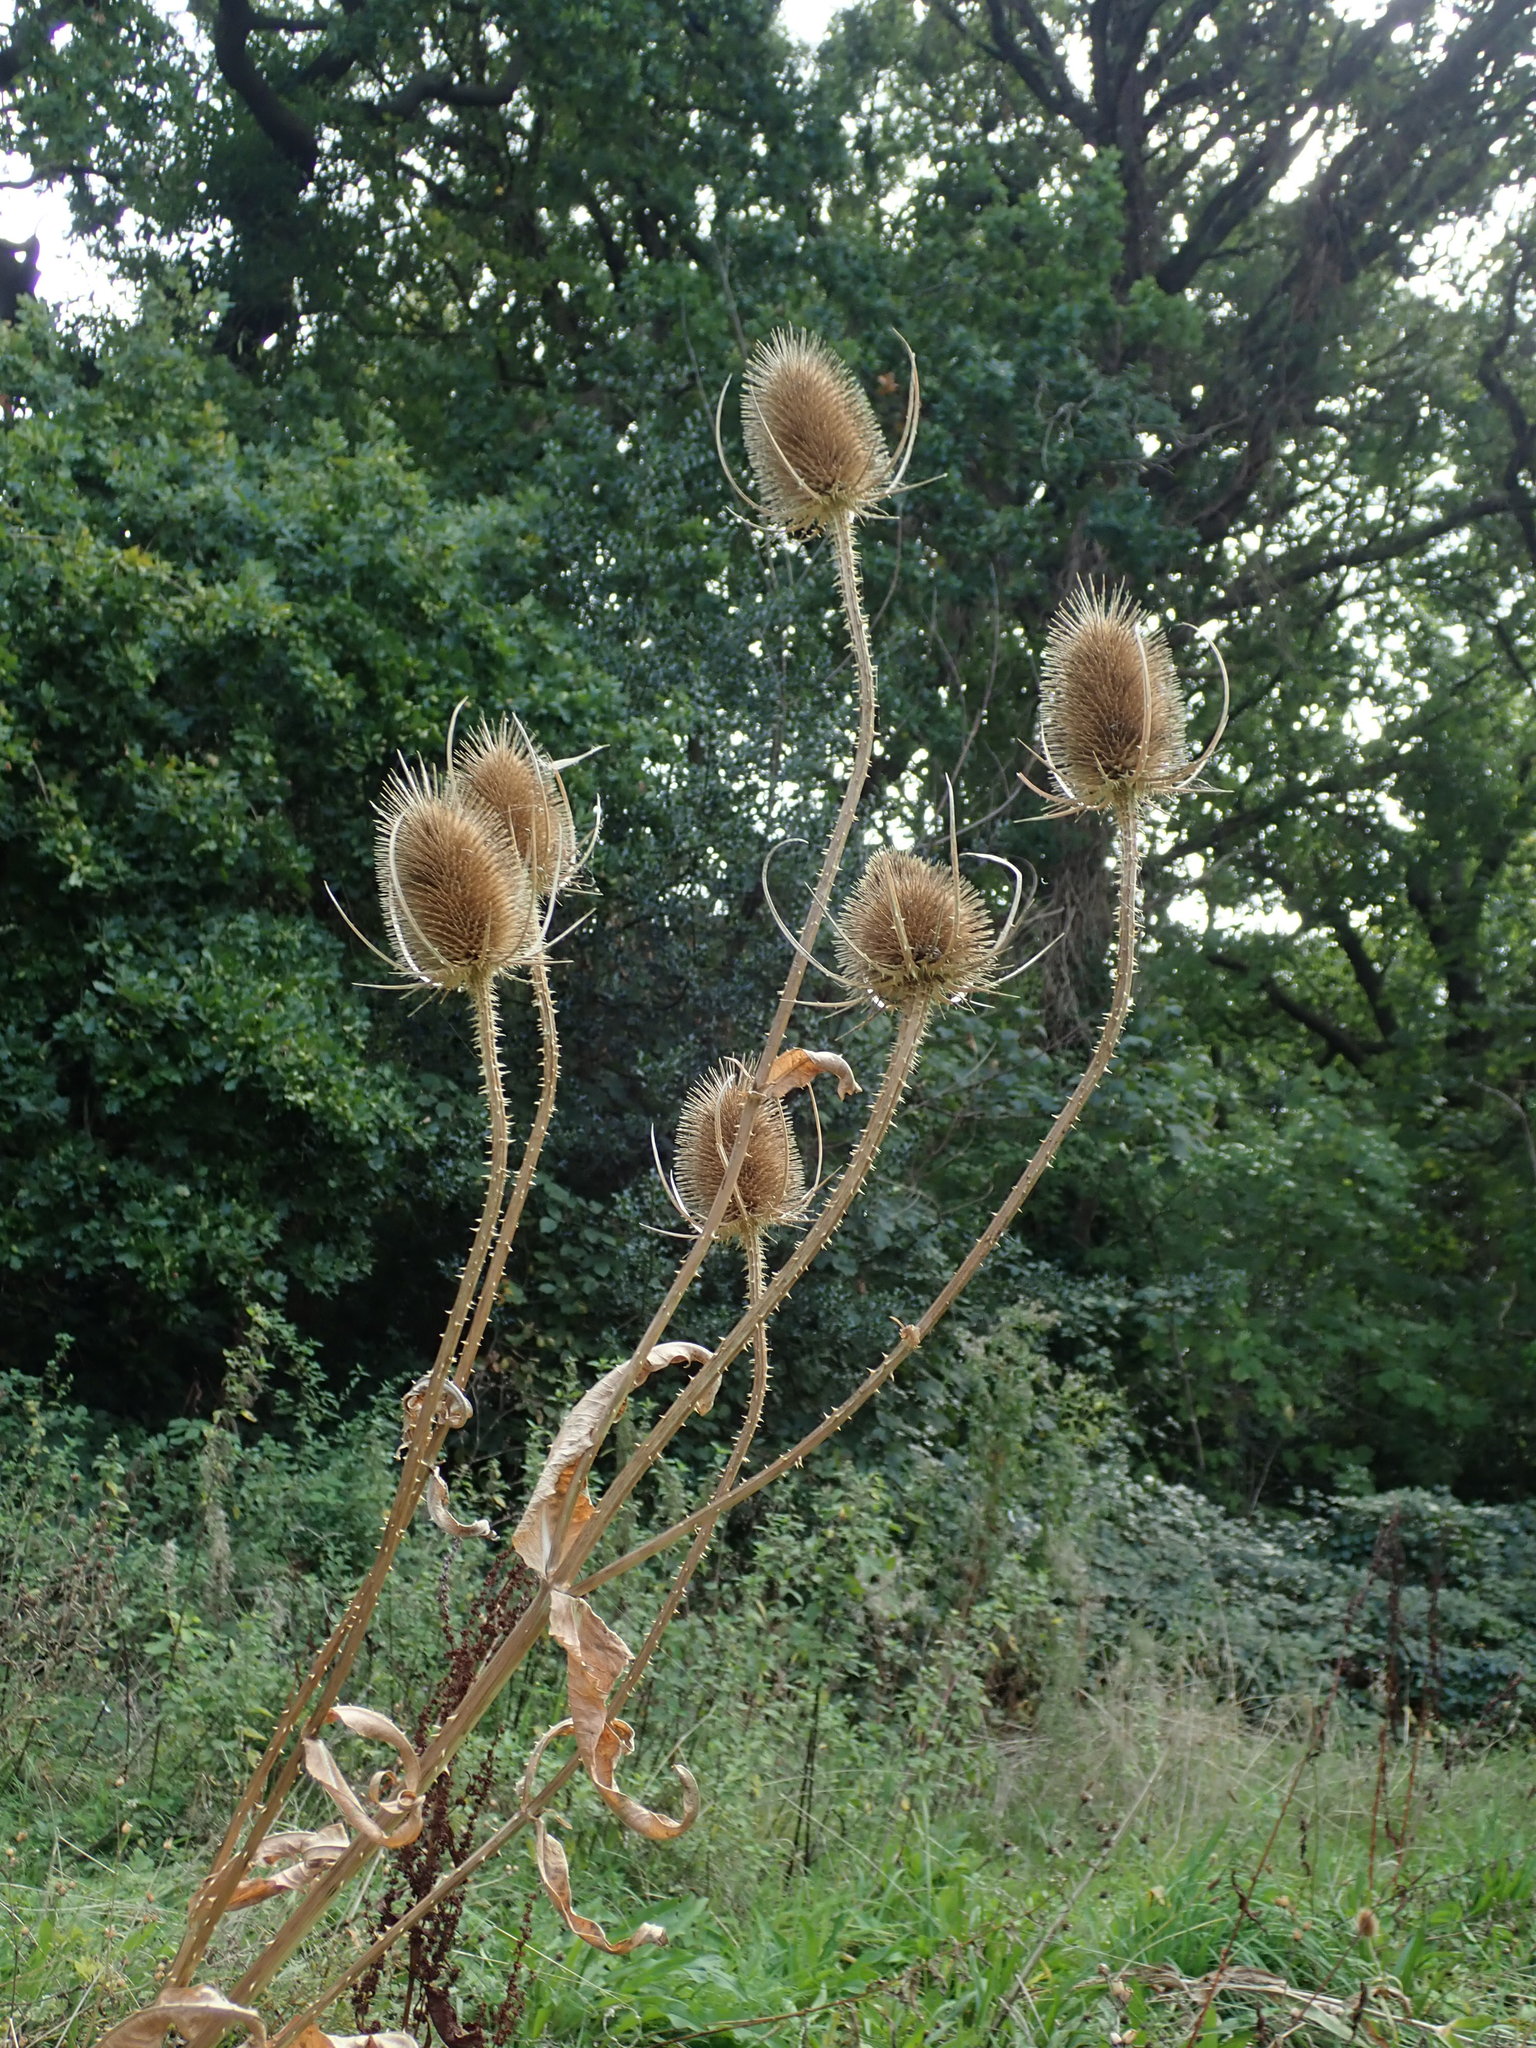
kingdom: Plantae
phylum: Tracheophyta
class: Magnoliopsida
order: Dipsacales
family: Caprifoliaceae
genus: Dipsacus
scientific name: Dipsacus fullonum
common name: Teasel
